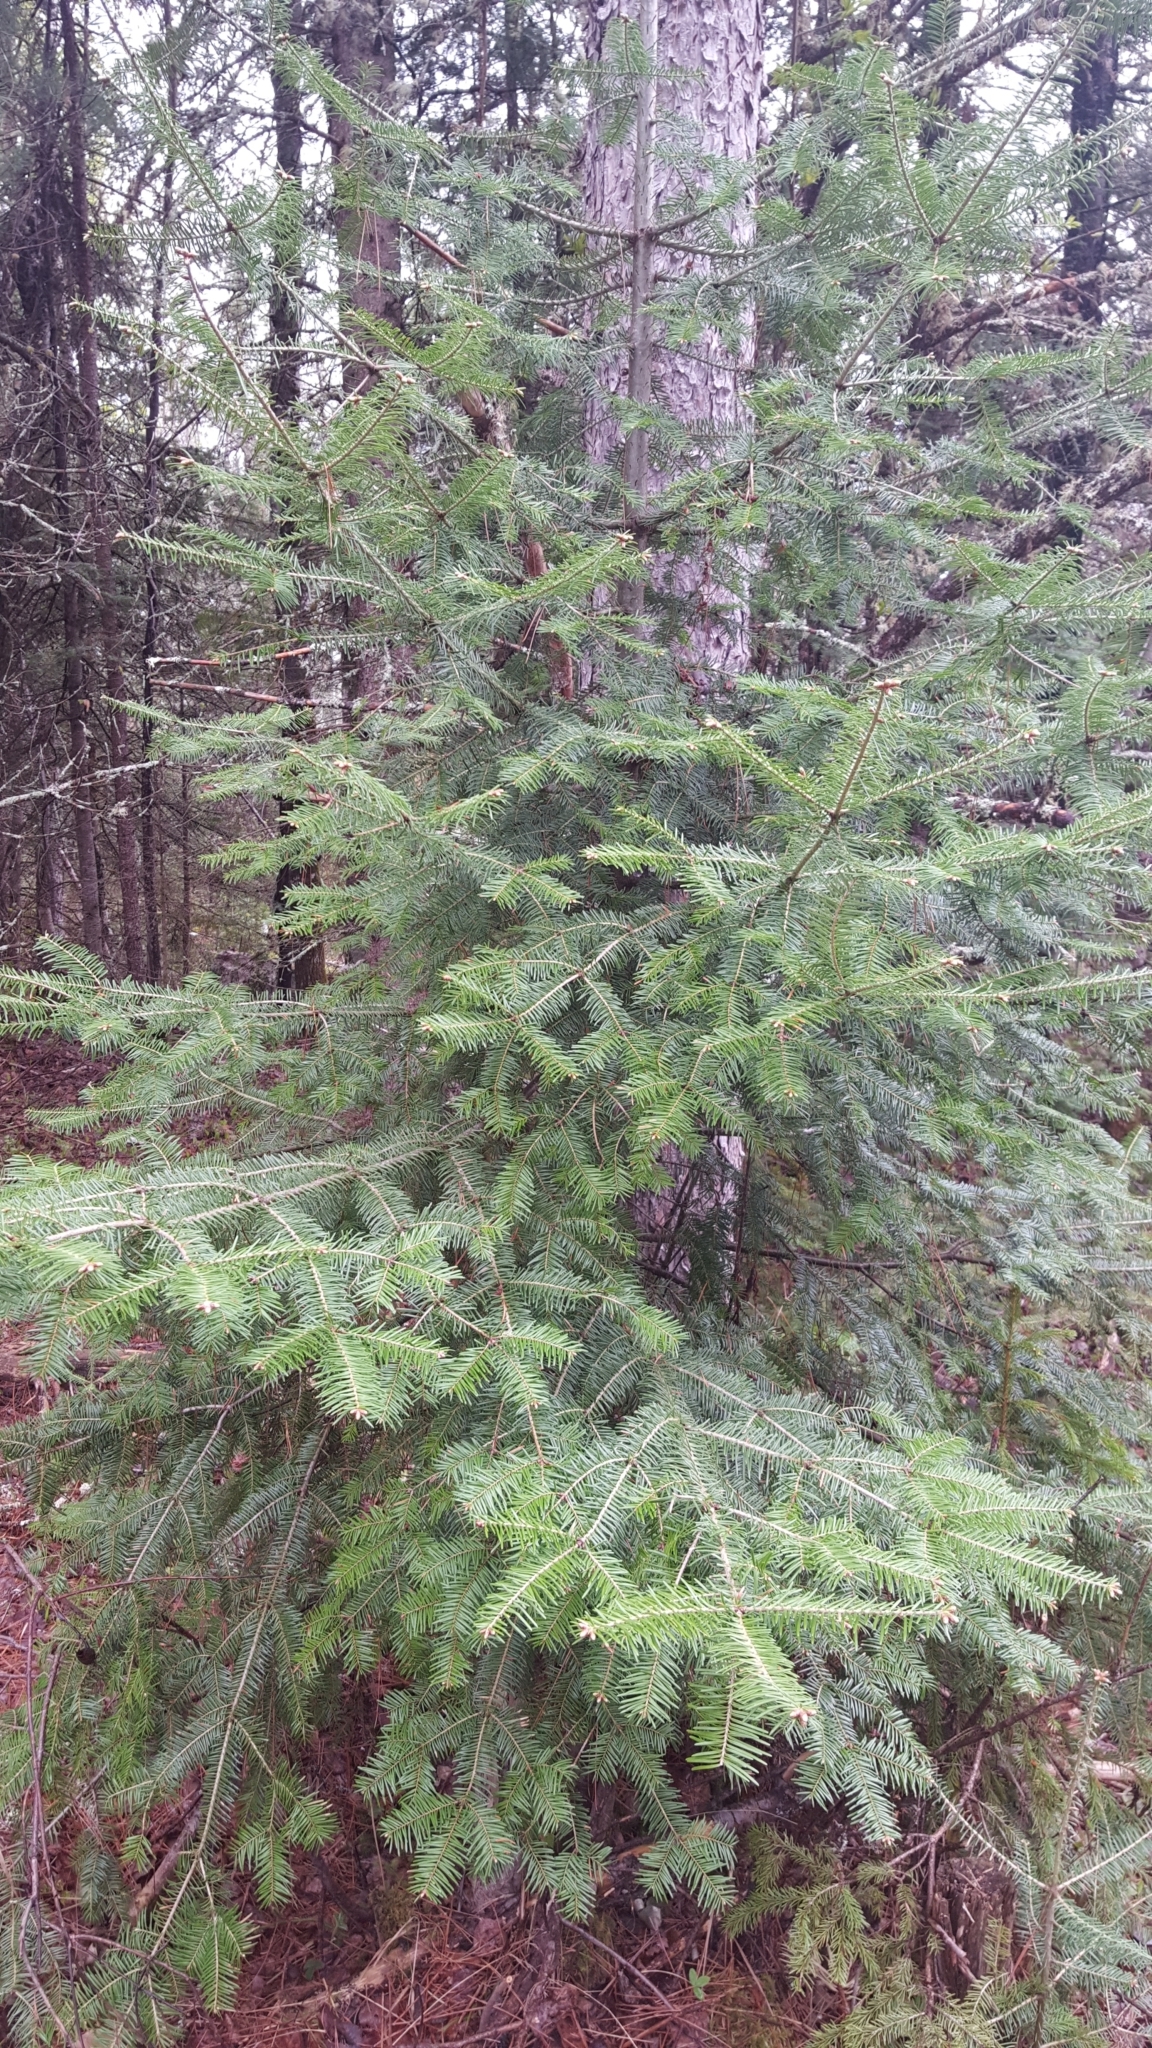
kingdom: Plantae
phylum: Tracheophyta
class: Pinopsida
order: Pinales
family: Pinaceae
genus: Abies
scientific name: Abies balsamea
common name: Balsam fir
